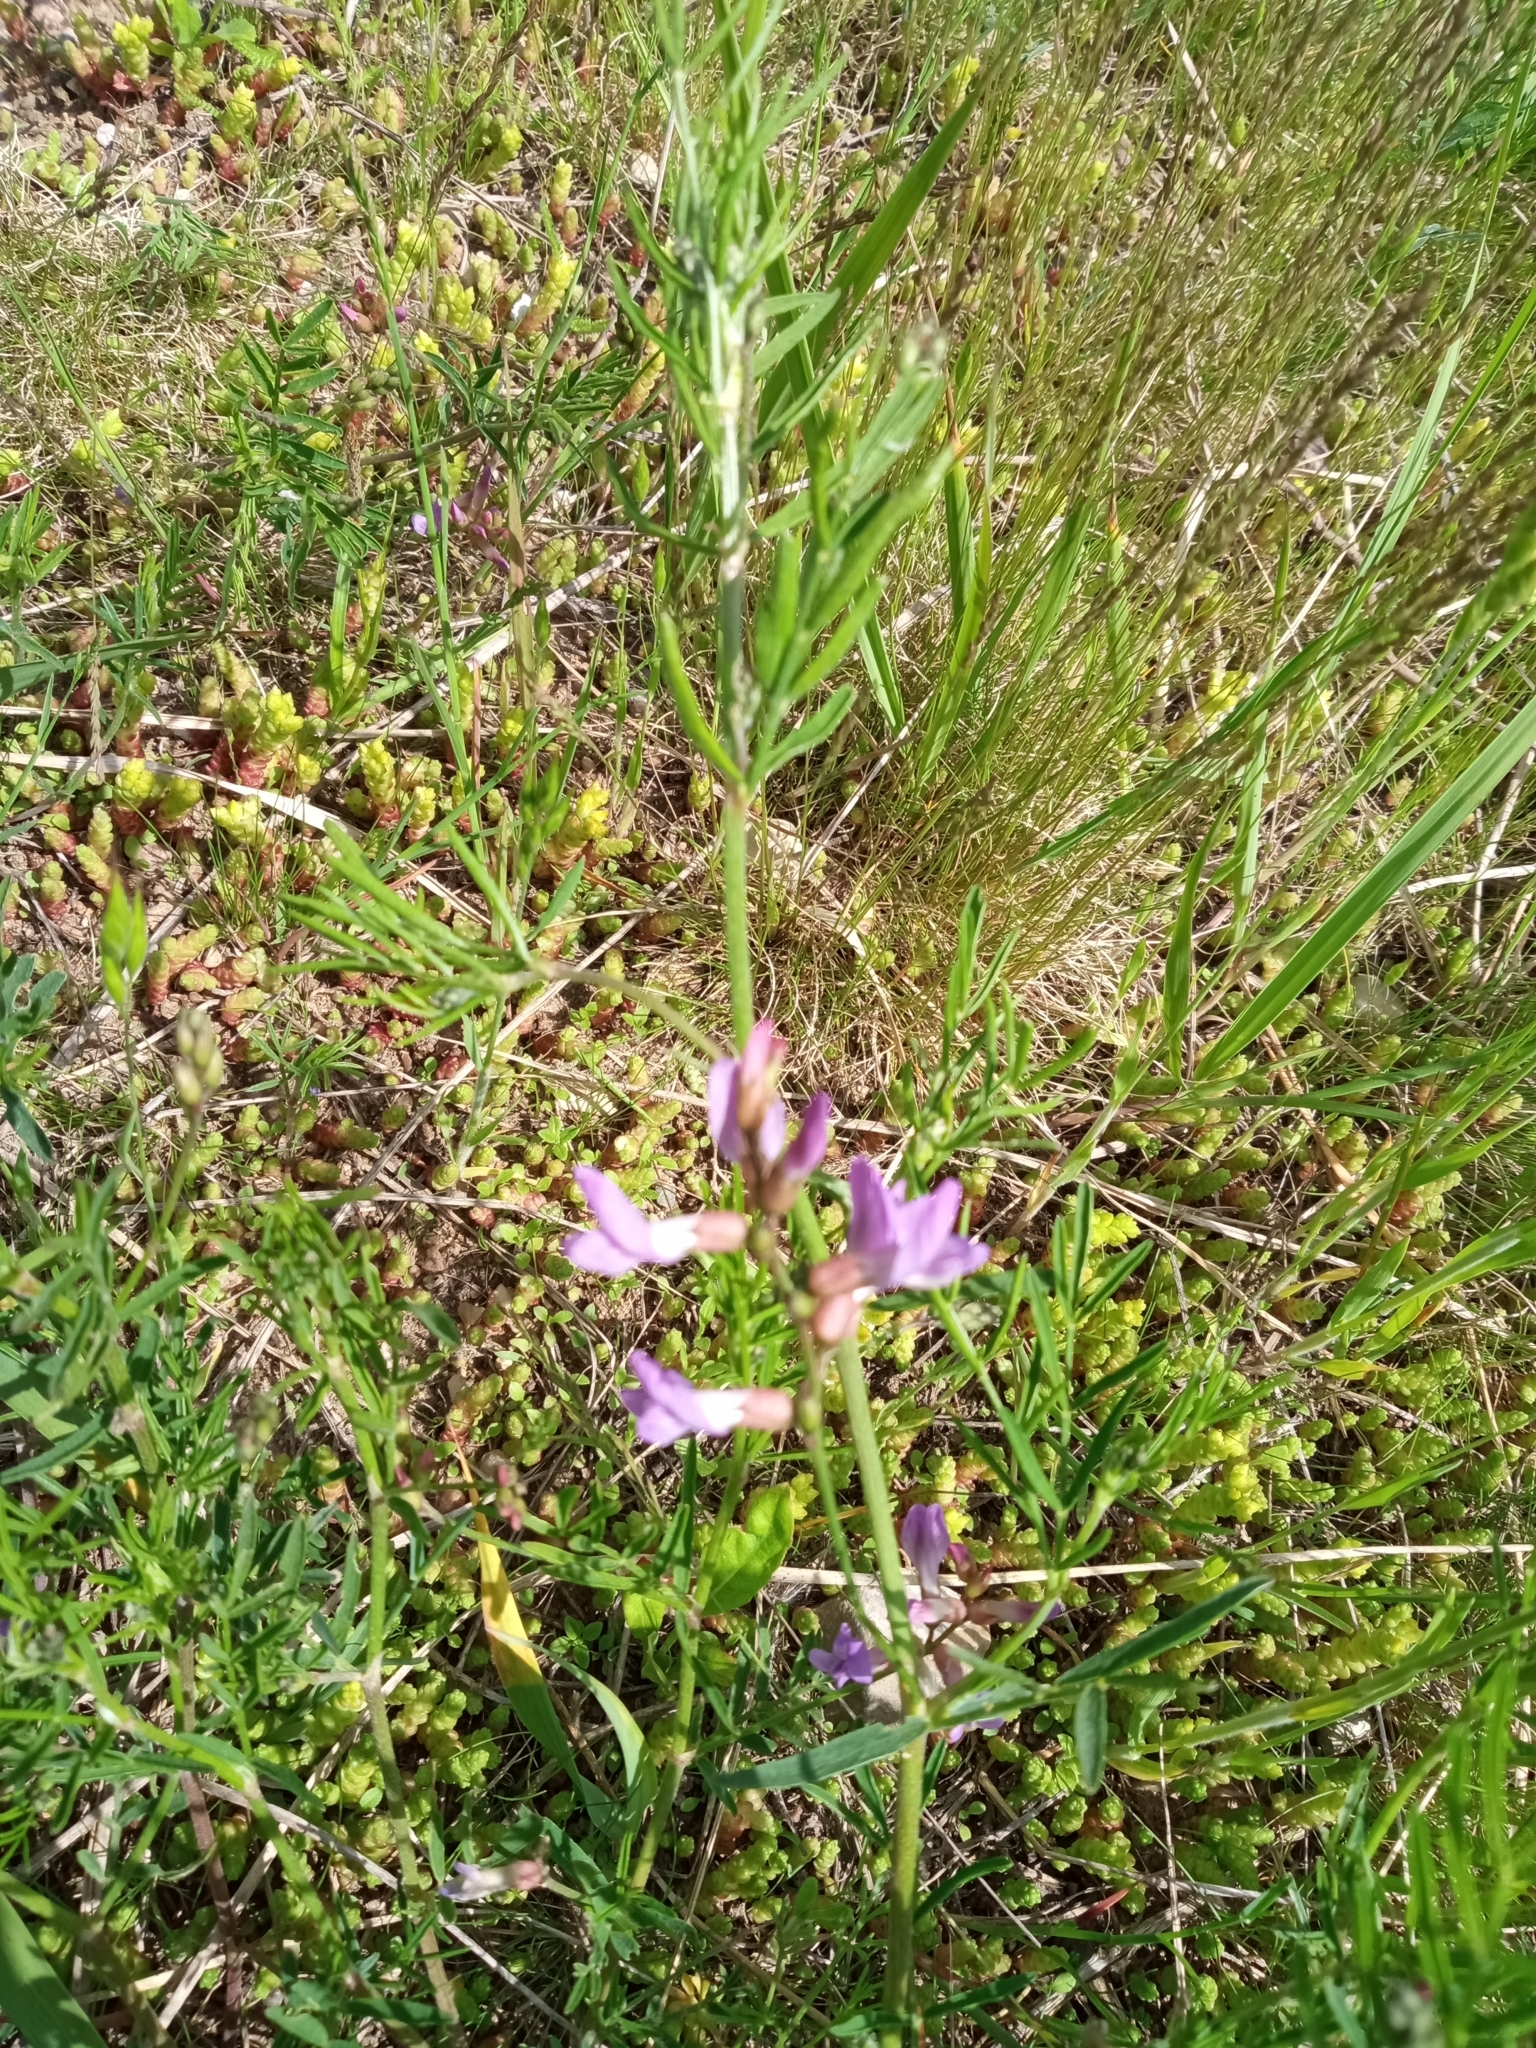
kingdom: Plantae
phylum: Tracheophyta
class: Magnoliopsida
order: Fabales
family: Fabaceae
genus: Astragalus
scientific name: Astragalus arenarius
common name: Arenarious milk-vetch
